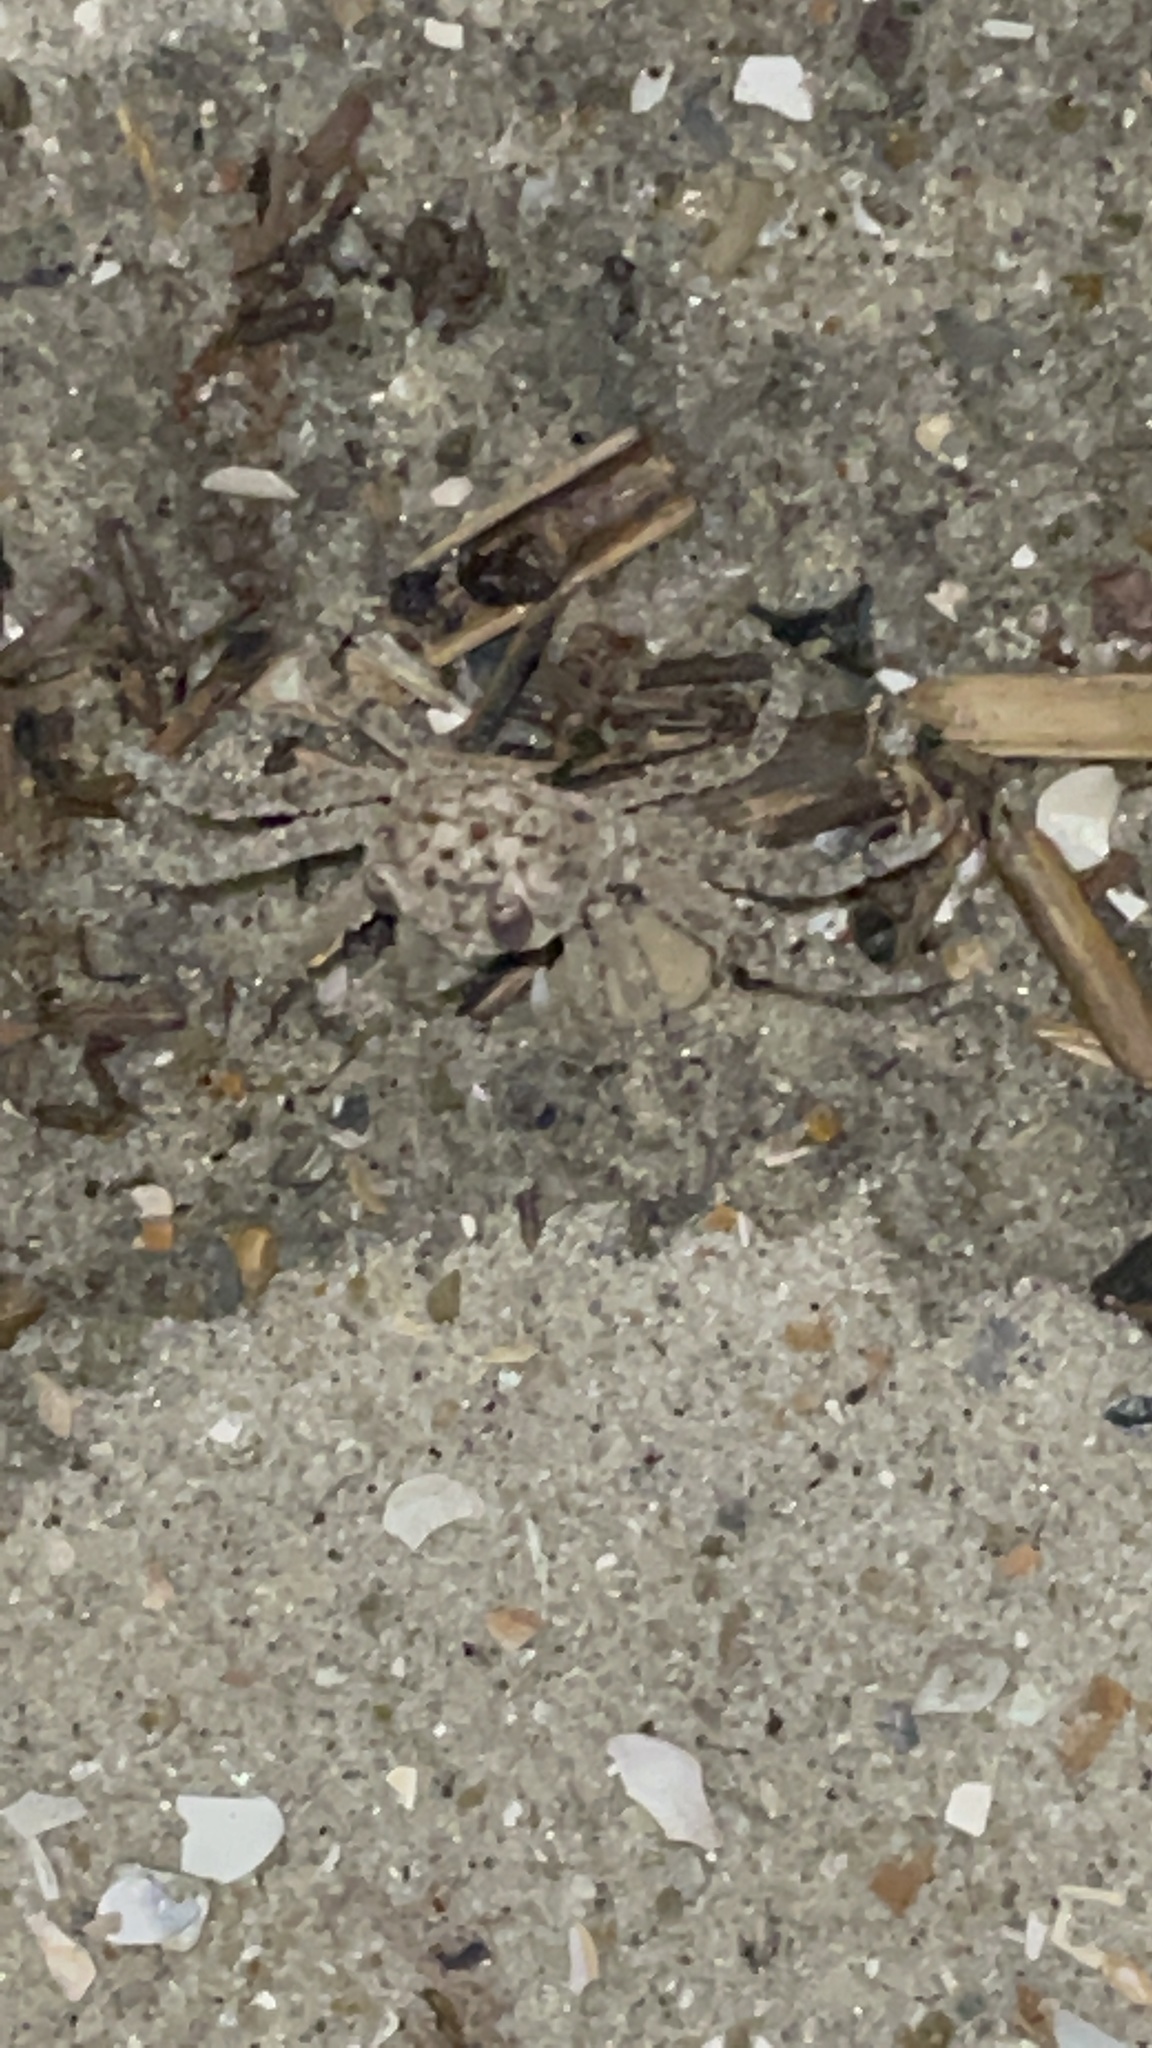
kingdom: Animalia
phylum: Arthropoda
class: Malacostraca
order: Decapoda
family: Ocypodidae
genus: Ocypode
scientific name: Ocypode quadrata
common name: Ghost crab
